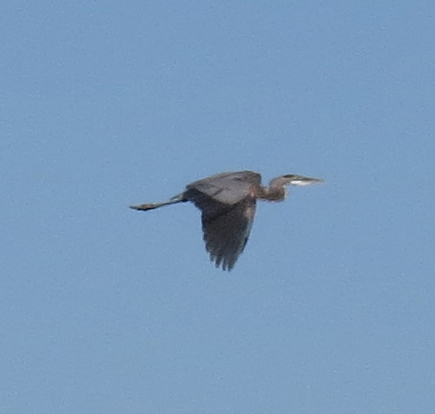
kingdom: Animalia
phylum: Chordata
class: Aves
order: Pelecaniformes
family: Ardeidae
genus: Ardea
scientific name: Ardea herodias
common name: Great blue heron
